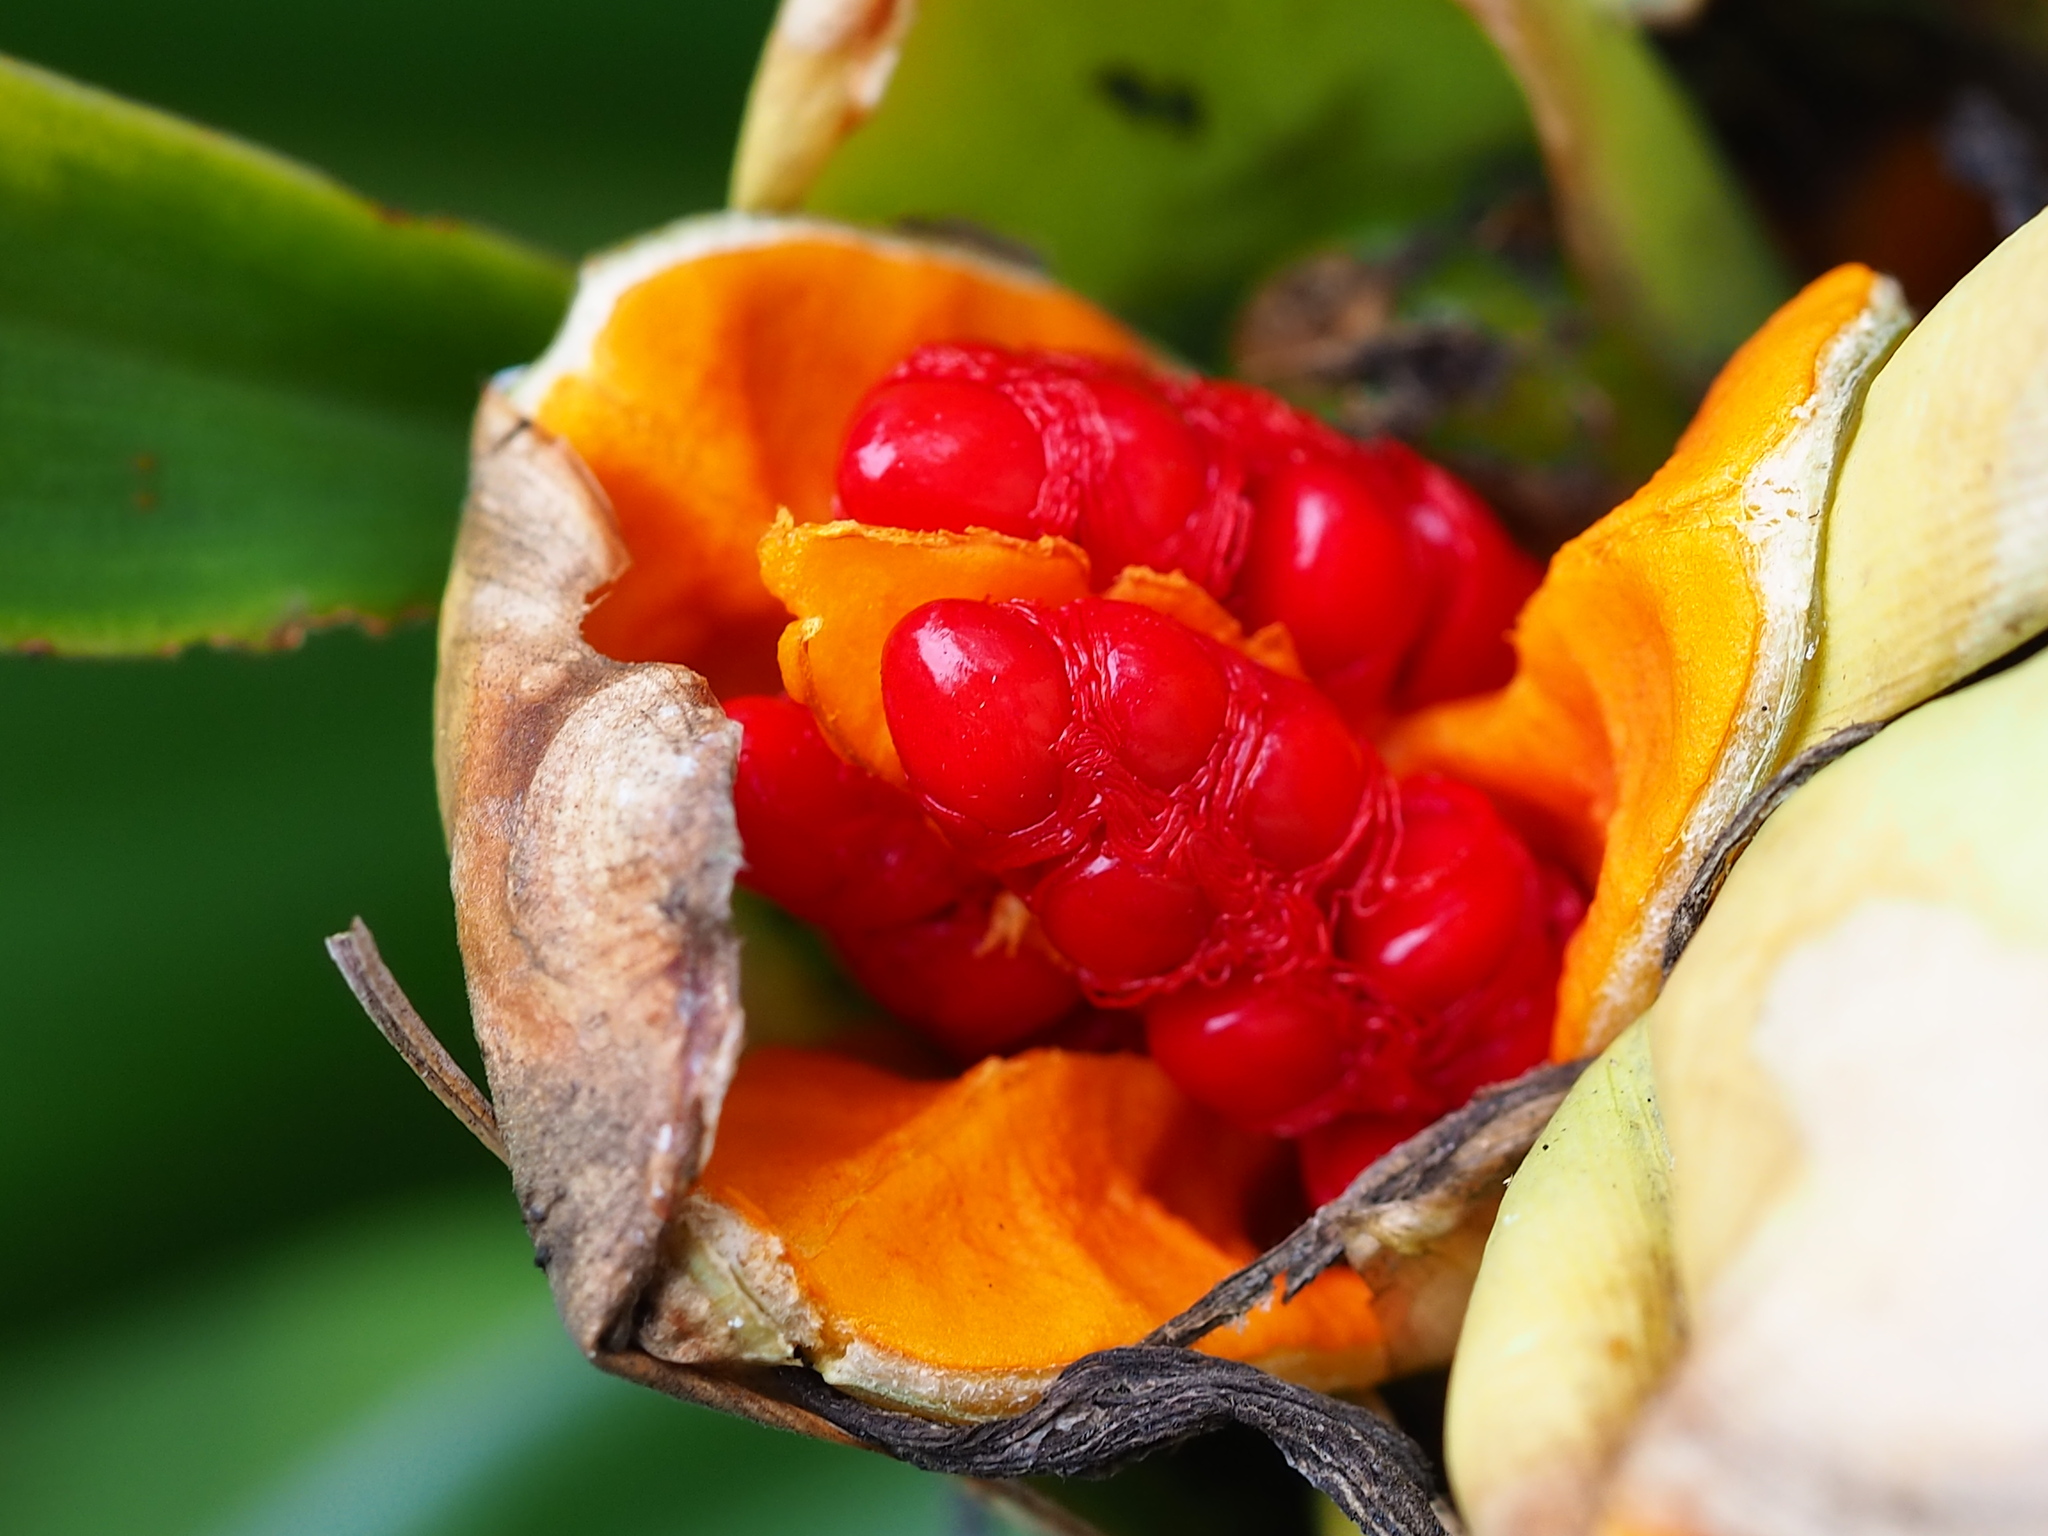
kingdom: Plantae
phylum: Tracheophyta
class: Liliopsida
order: Zingiberales
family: Zingiberaceae
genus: Hedychium
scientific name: Hedychium coronarium
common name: White garland-lily
